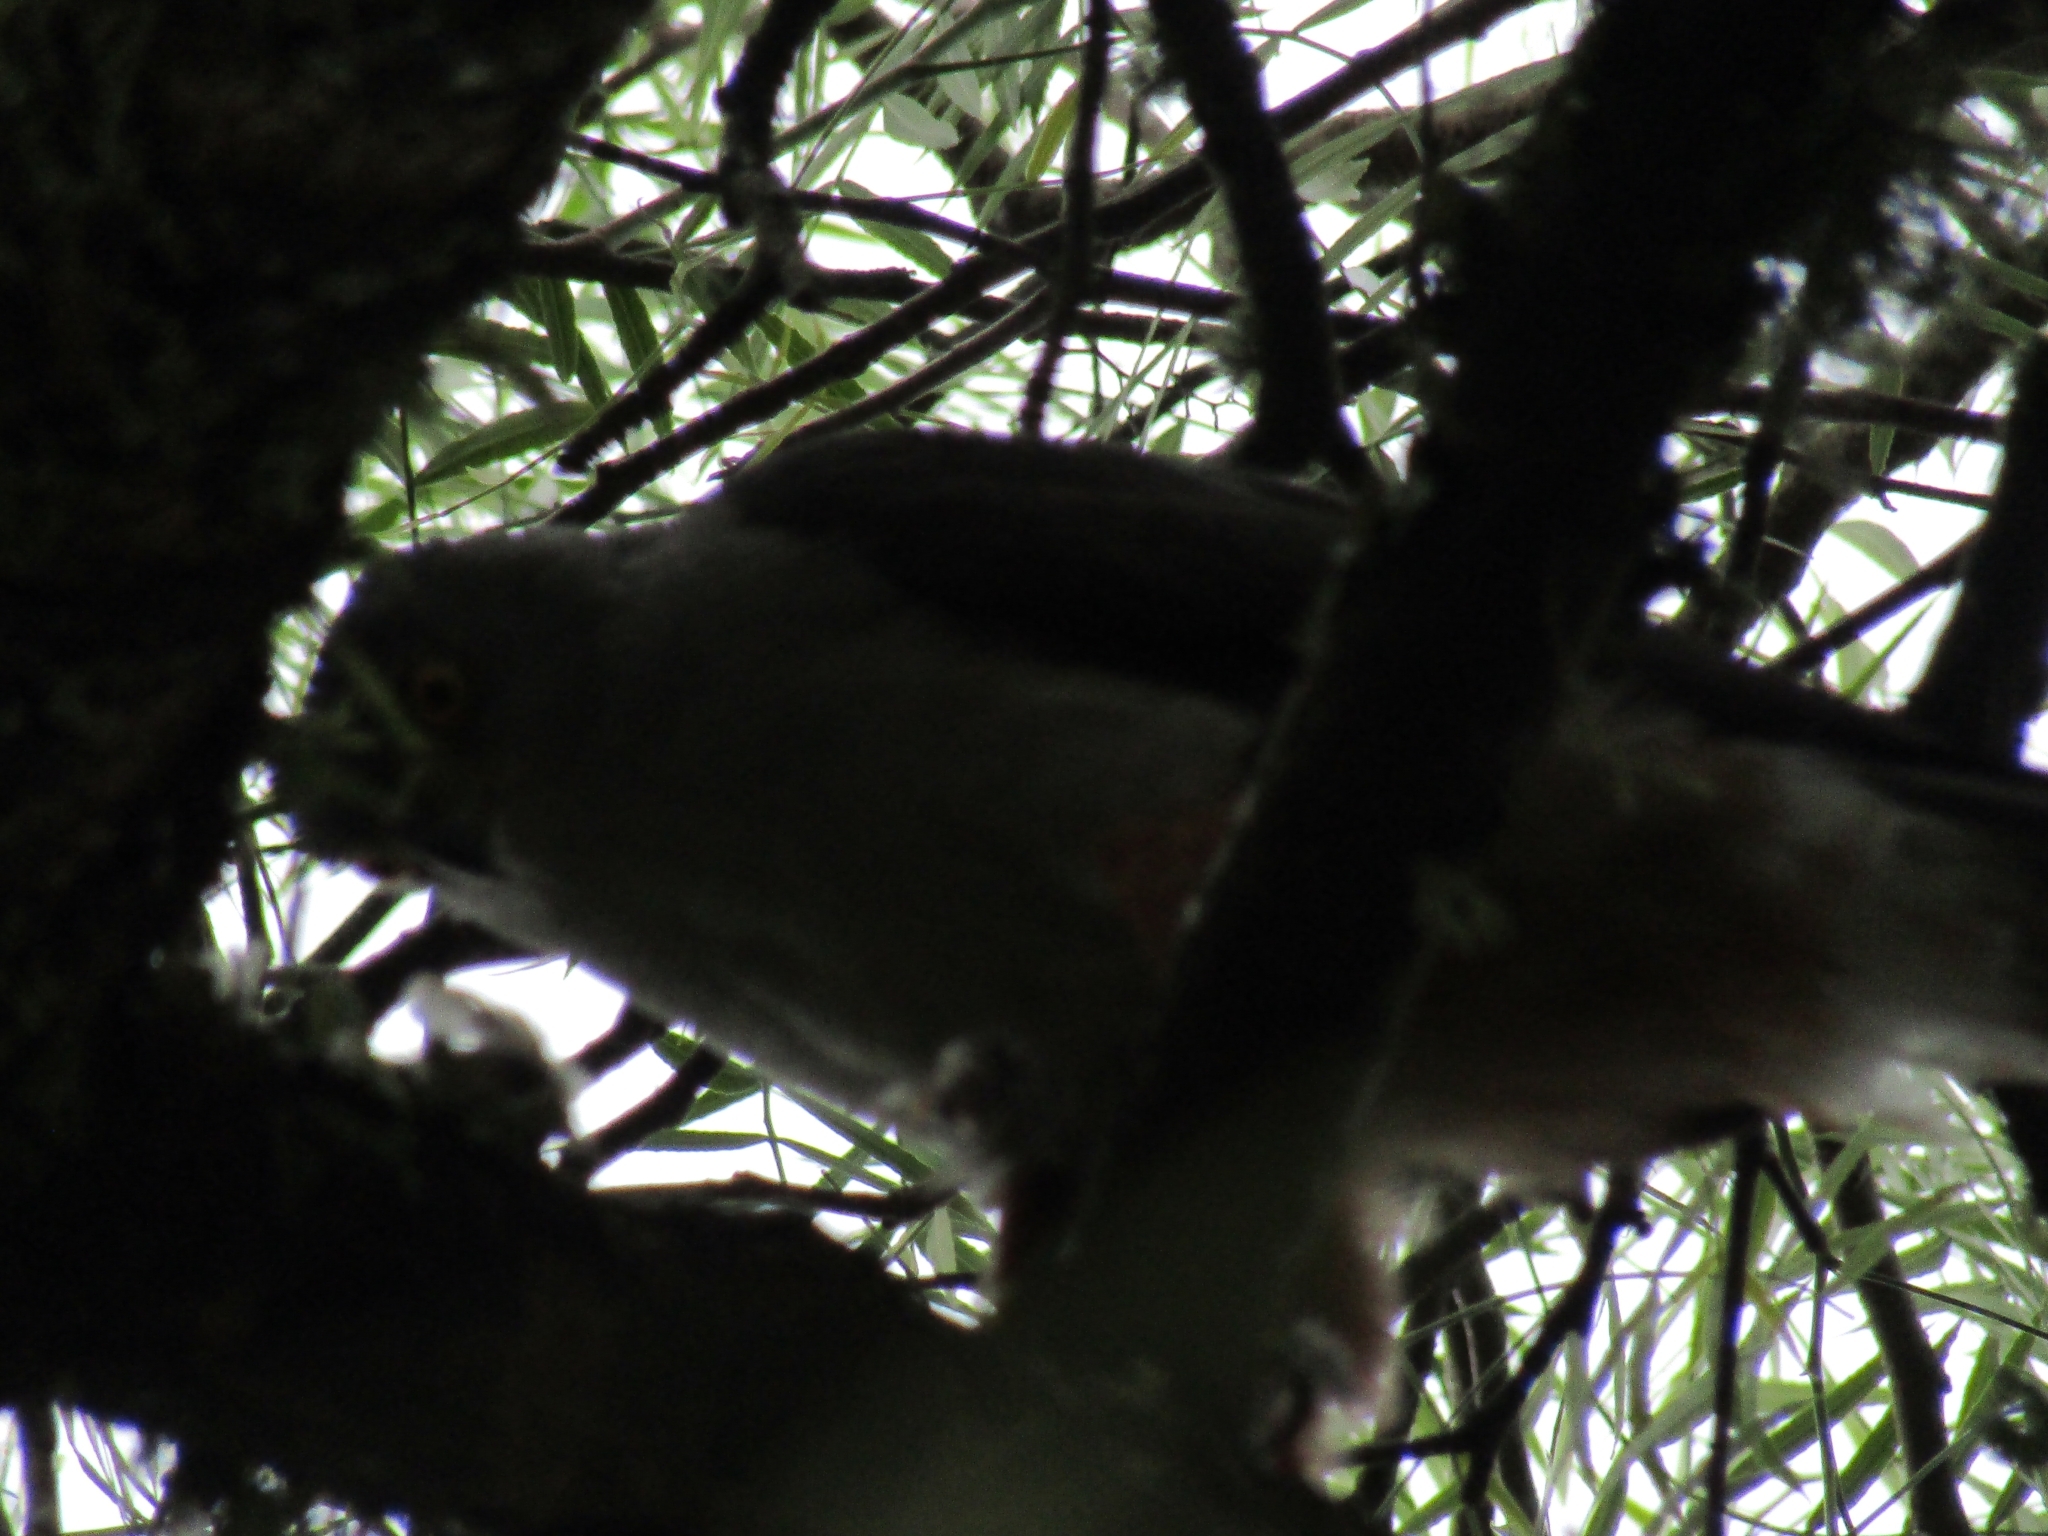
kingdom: Animalia
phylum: Chordata
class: Aves
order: Accipitriformes
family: Accipitridae
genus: Accipiter
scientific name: Accipiter bicolor
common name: Bicolored hawk
